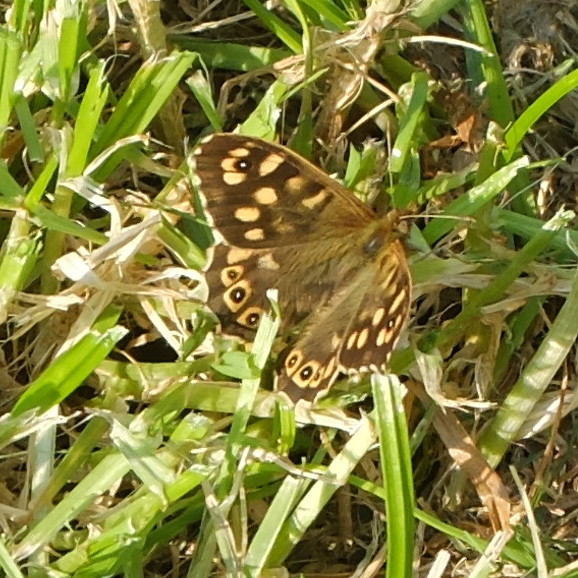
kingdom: Animalia
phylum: Arthropoda
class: Insecta
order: Lepidoptera
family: Nymphalidae
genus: Pararge
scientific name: Pararge aegeria
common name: Speckled wood
